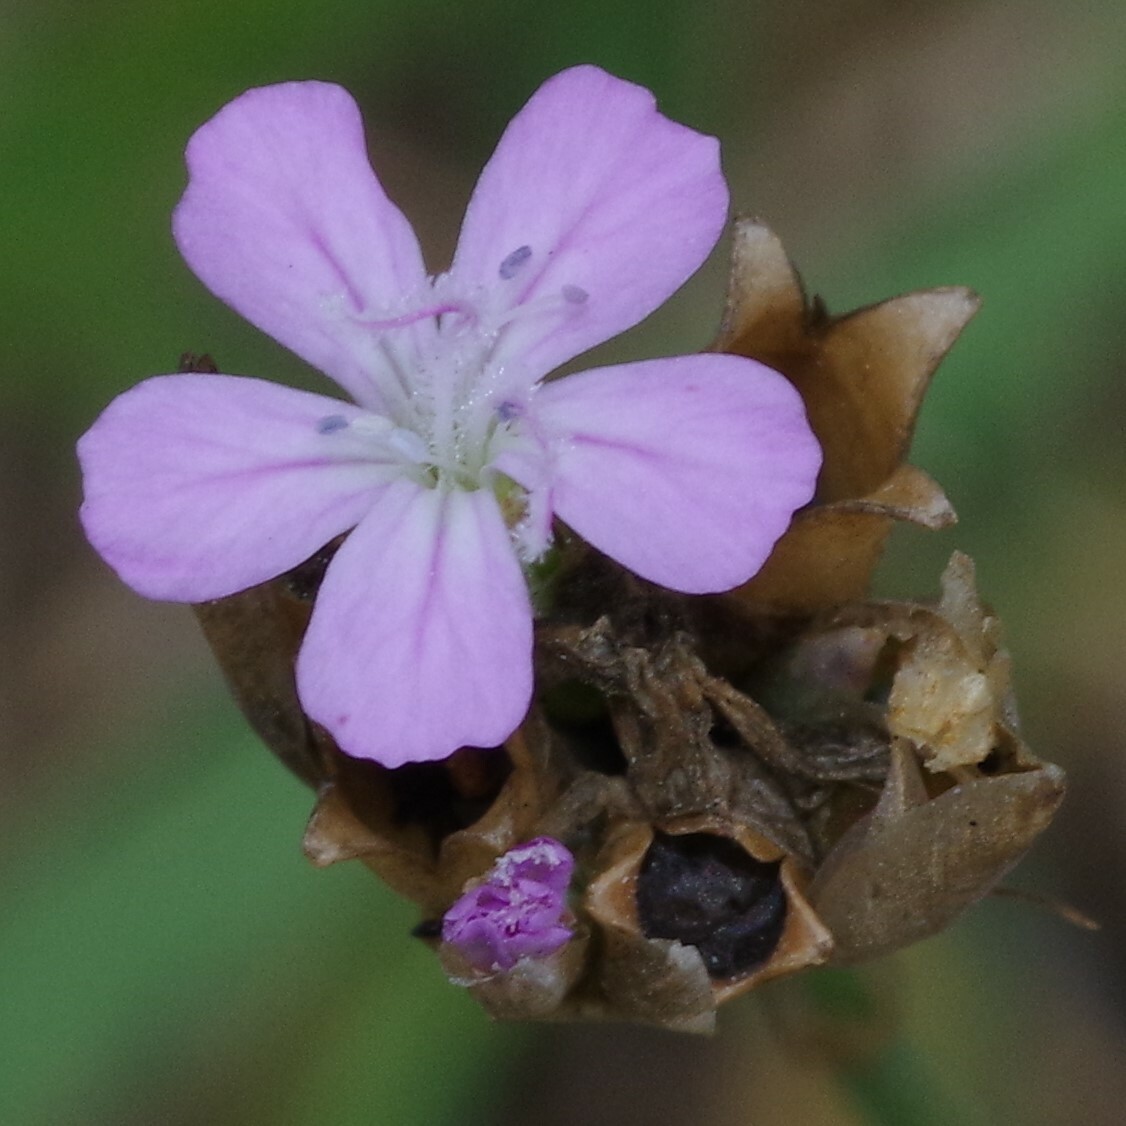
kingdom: Plantae
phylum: Tracheophyta
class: Magnoliopsida
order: Caryophyllales
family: Caryophyllaceae
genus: Petrorhagia
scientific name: Petrorhagia prolifera
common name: Proliferous pink
